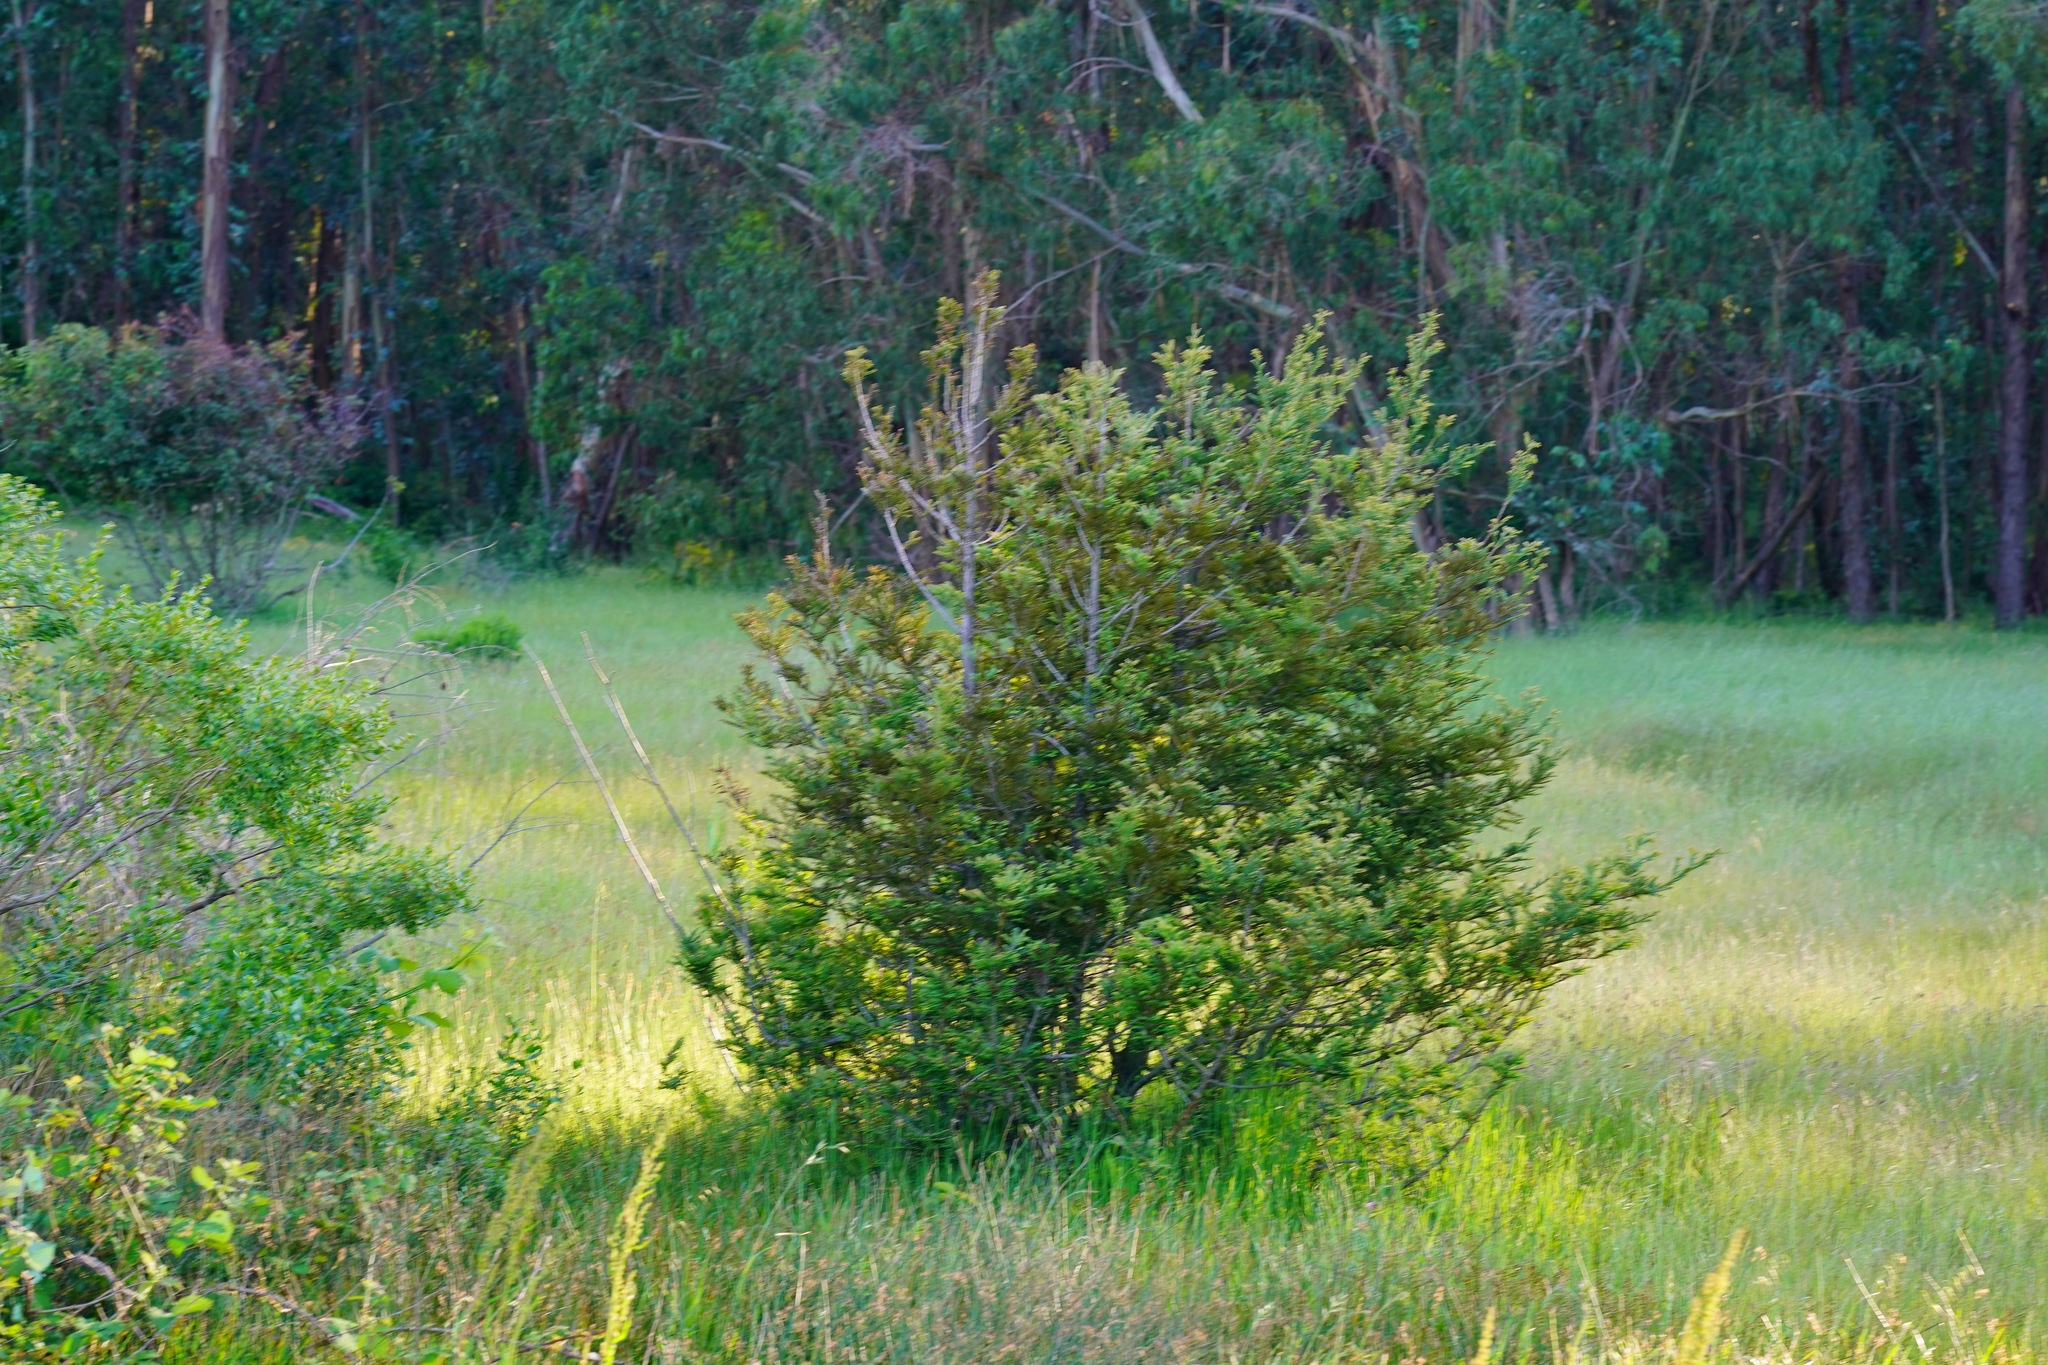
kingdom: Plantae
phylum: Tracheophyta
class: Pinopsida
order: Pinales
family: Cupressaceae
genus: Sequoia
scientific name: Sequoia sempervirens
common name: Coast redwood
